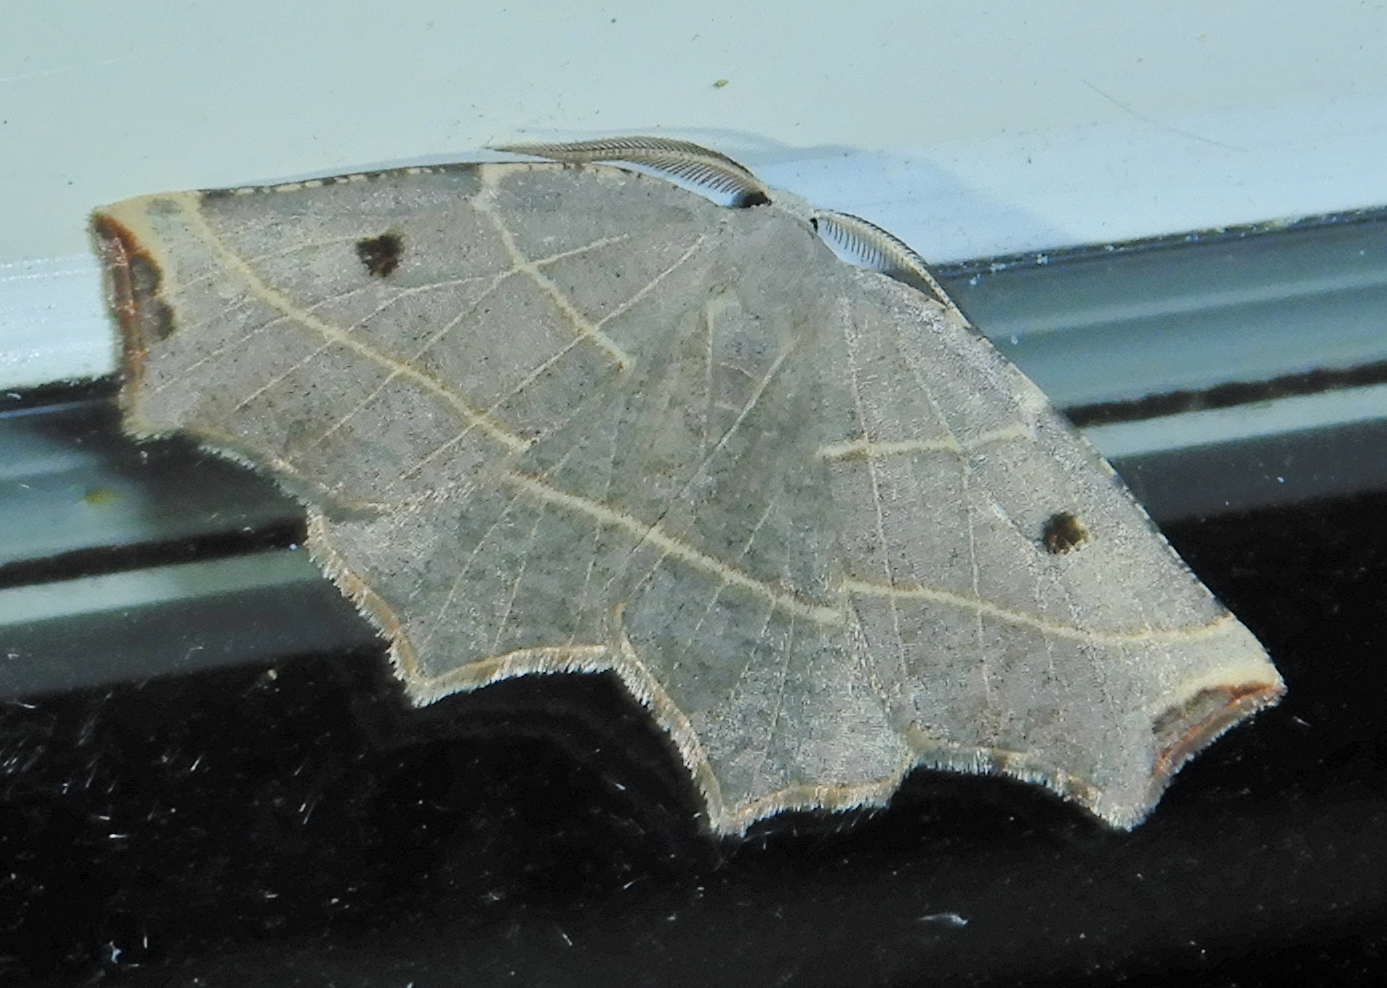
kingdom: Animalia
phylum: Arthropoda
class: Insecta
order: Lepidoptera
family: Geometridae
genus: Metanema
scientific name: Metanema inatomaria
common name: Pale metanema
